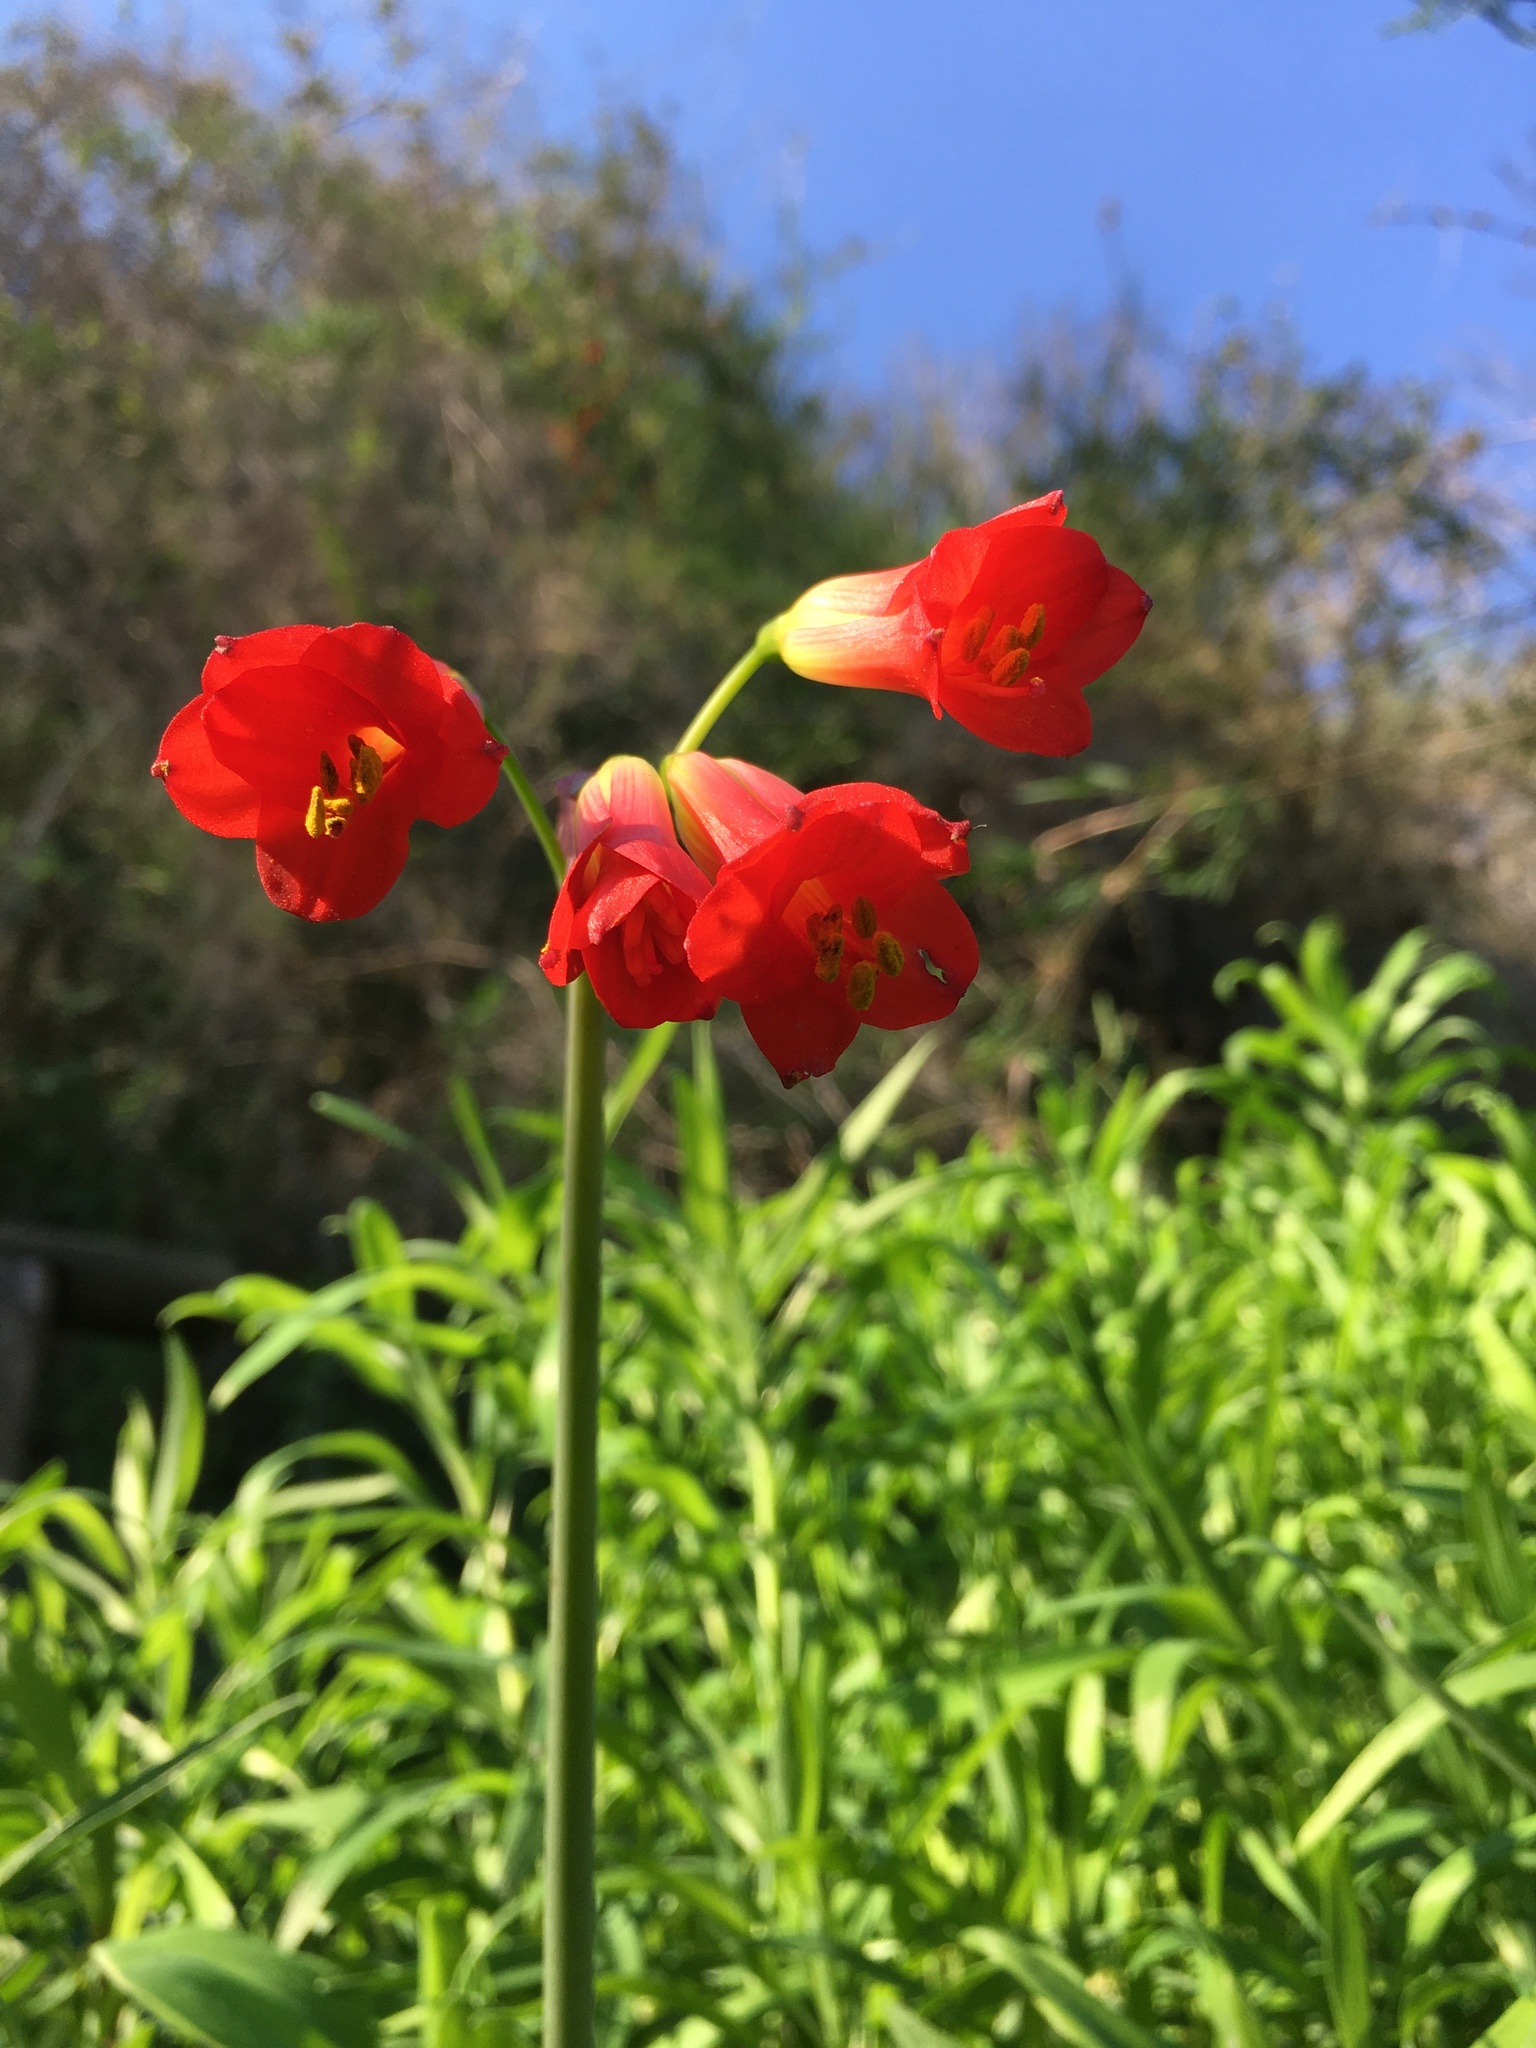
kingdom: Plantae
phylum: Tracheophyta
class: Liliopsida
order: Asparagales
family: Amaryllidaceae
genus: Phycella
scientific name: Phycella cyrtanthoides
